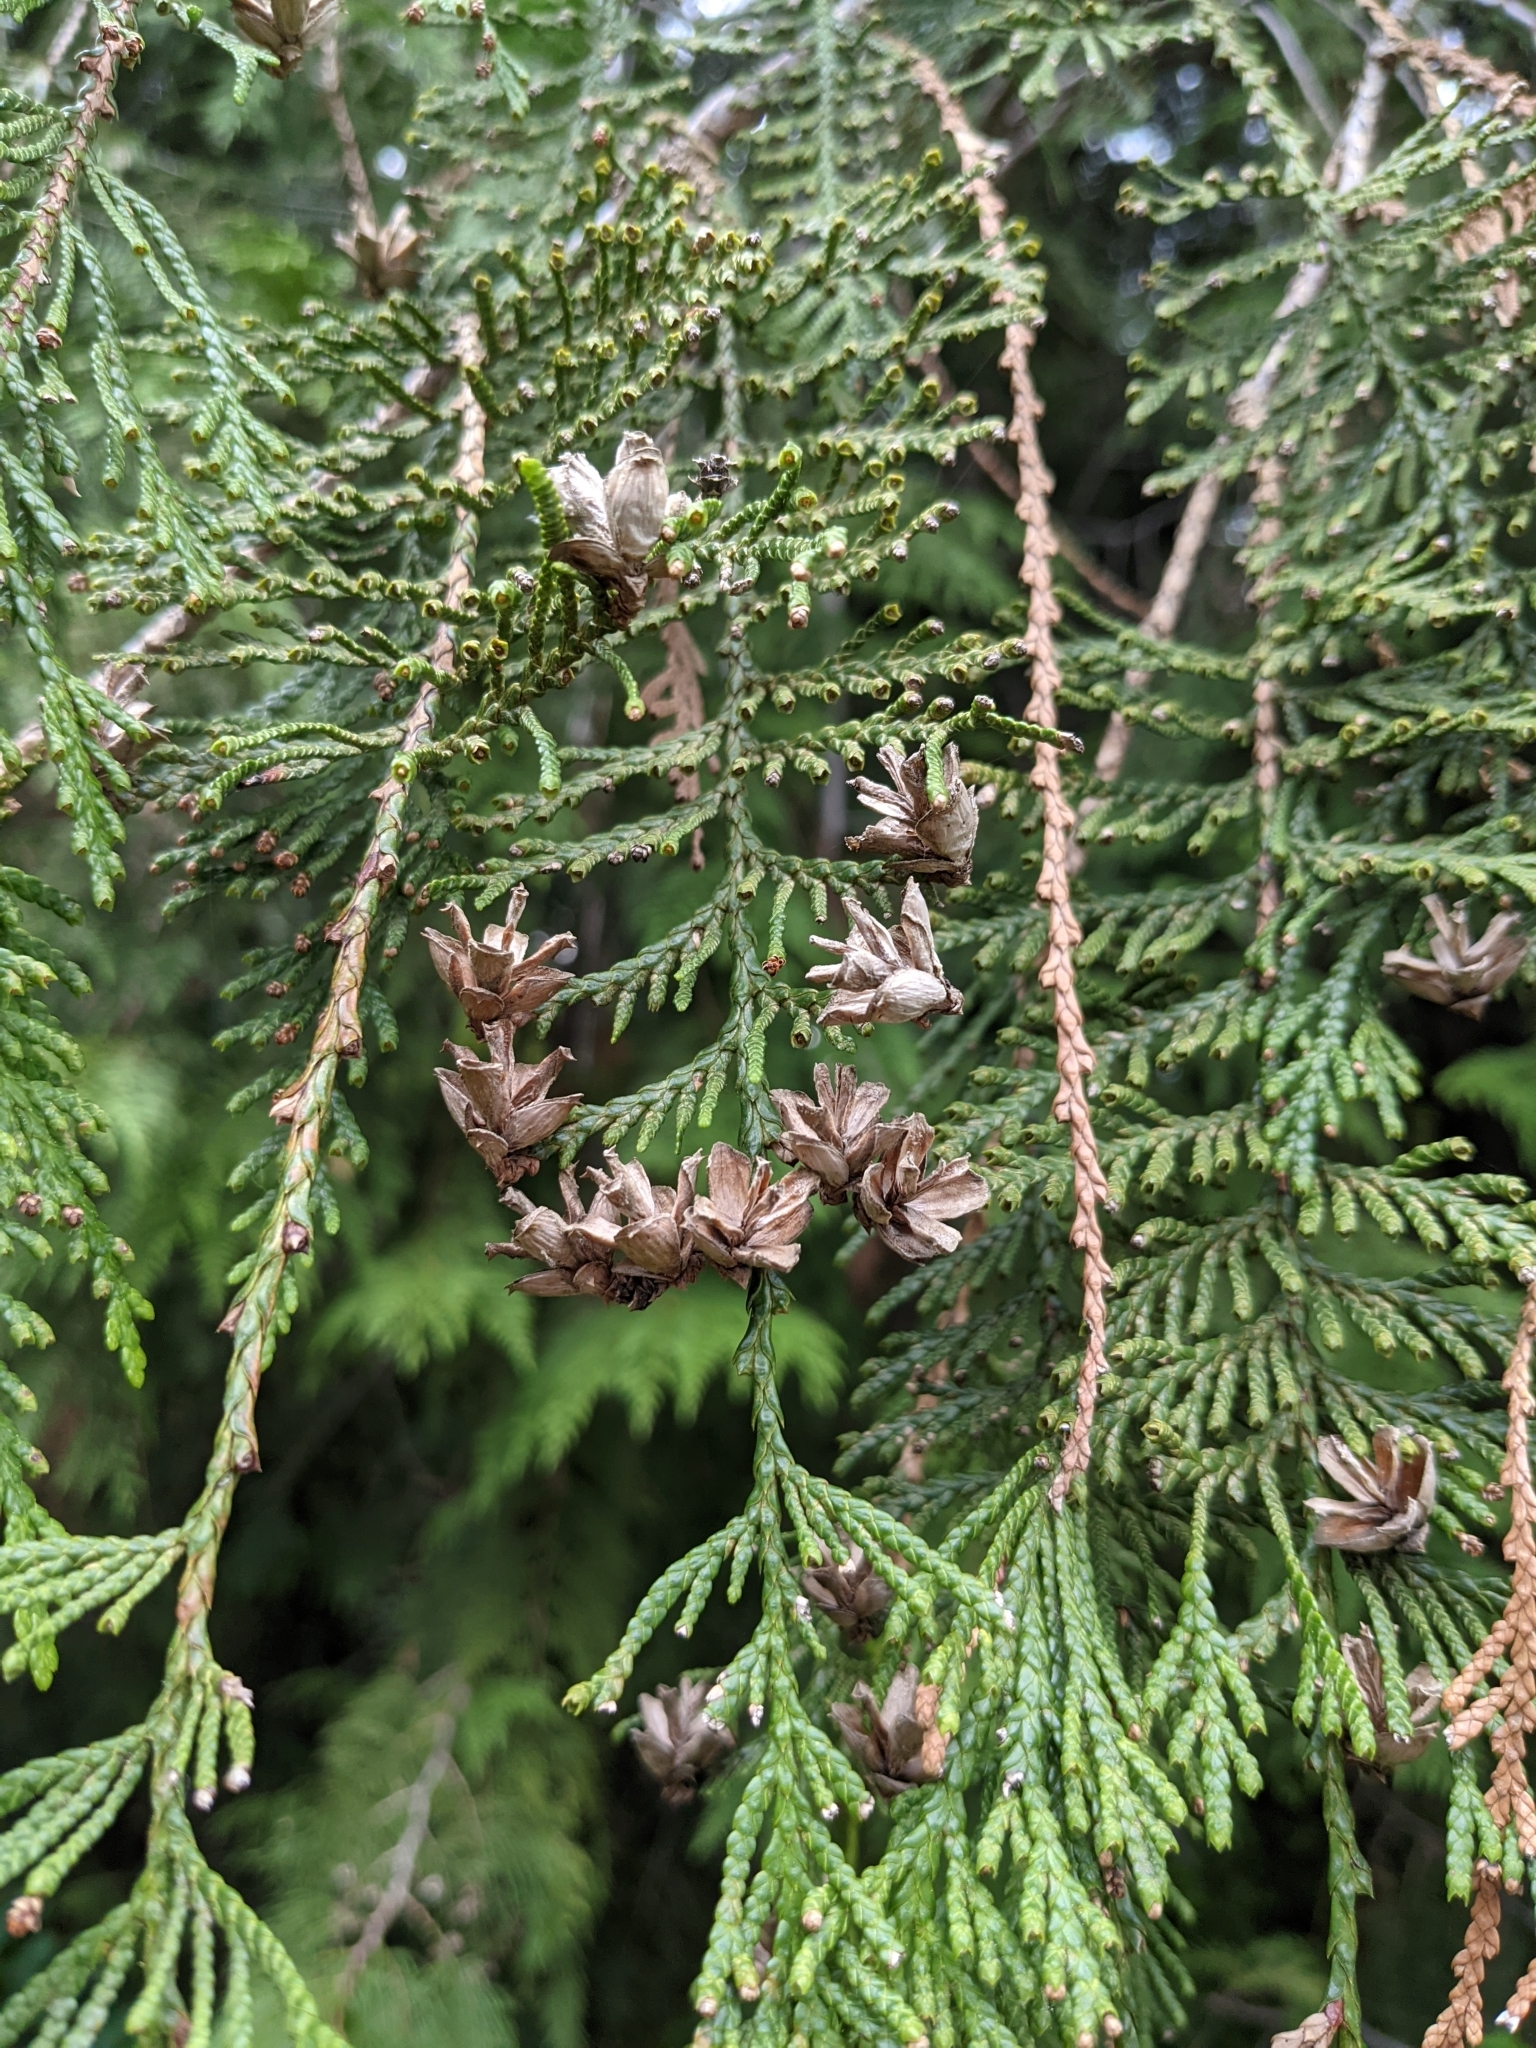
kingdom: Plantae
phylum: Tracheophyta
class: Pinopsida
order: Pinales
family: Cupressaceae
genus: Thuja
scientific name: Thuja plicata
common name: Western red-cedar
